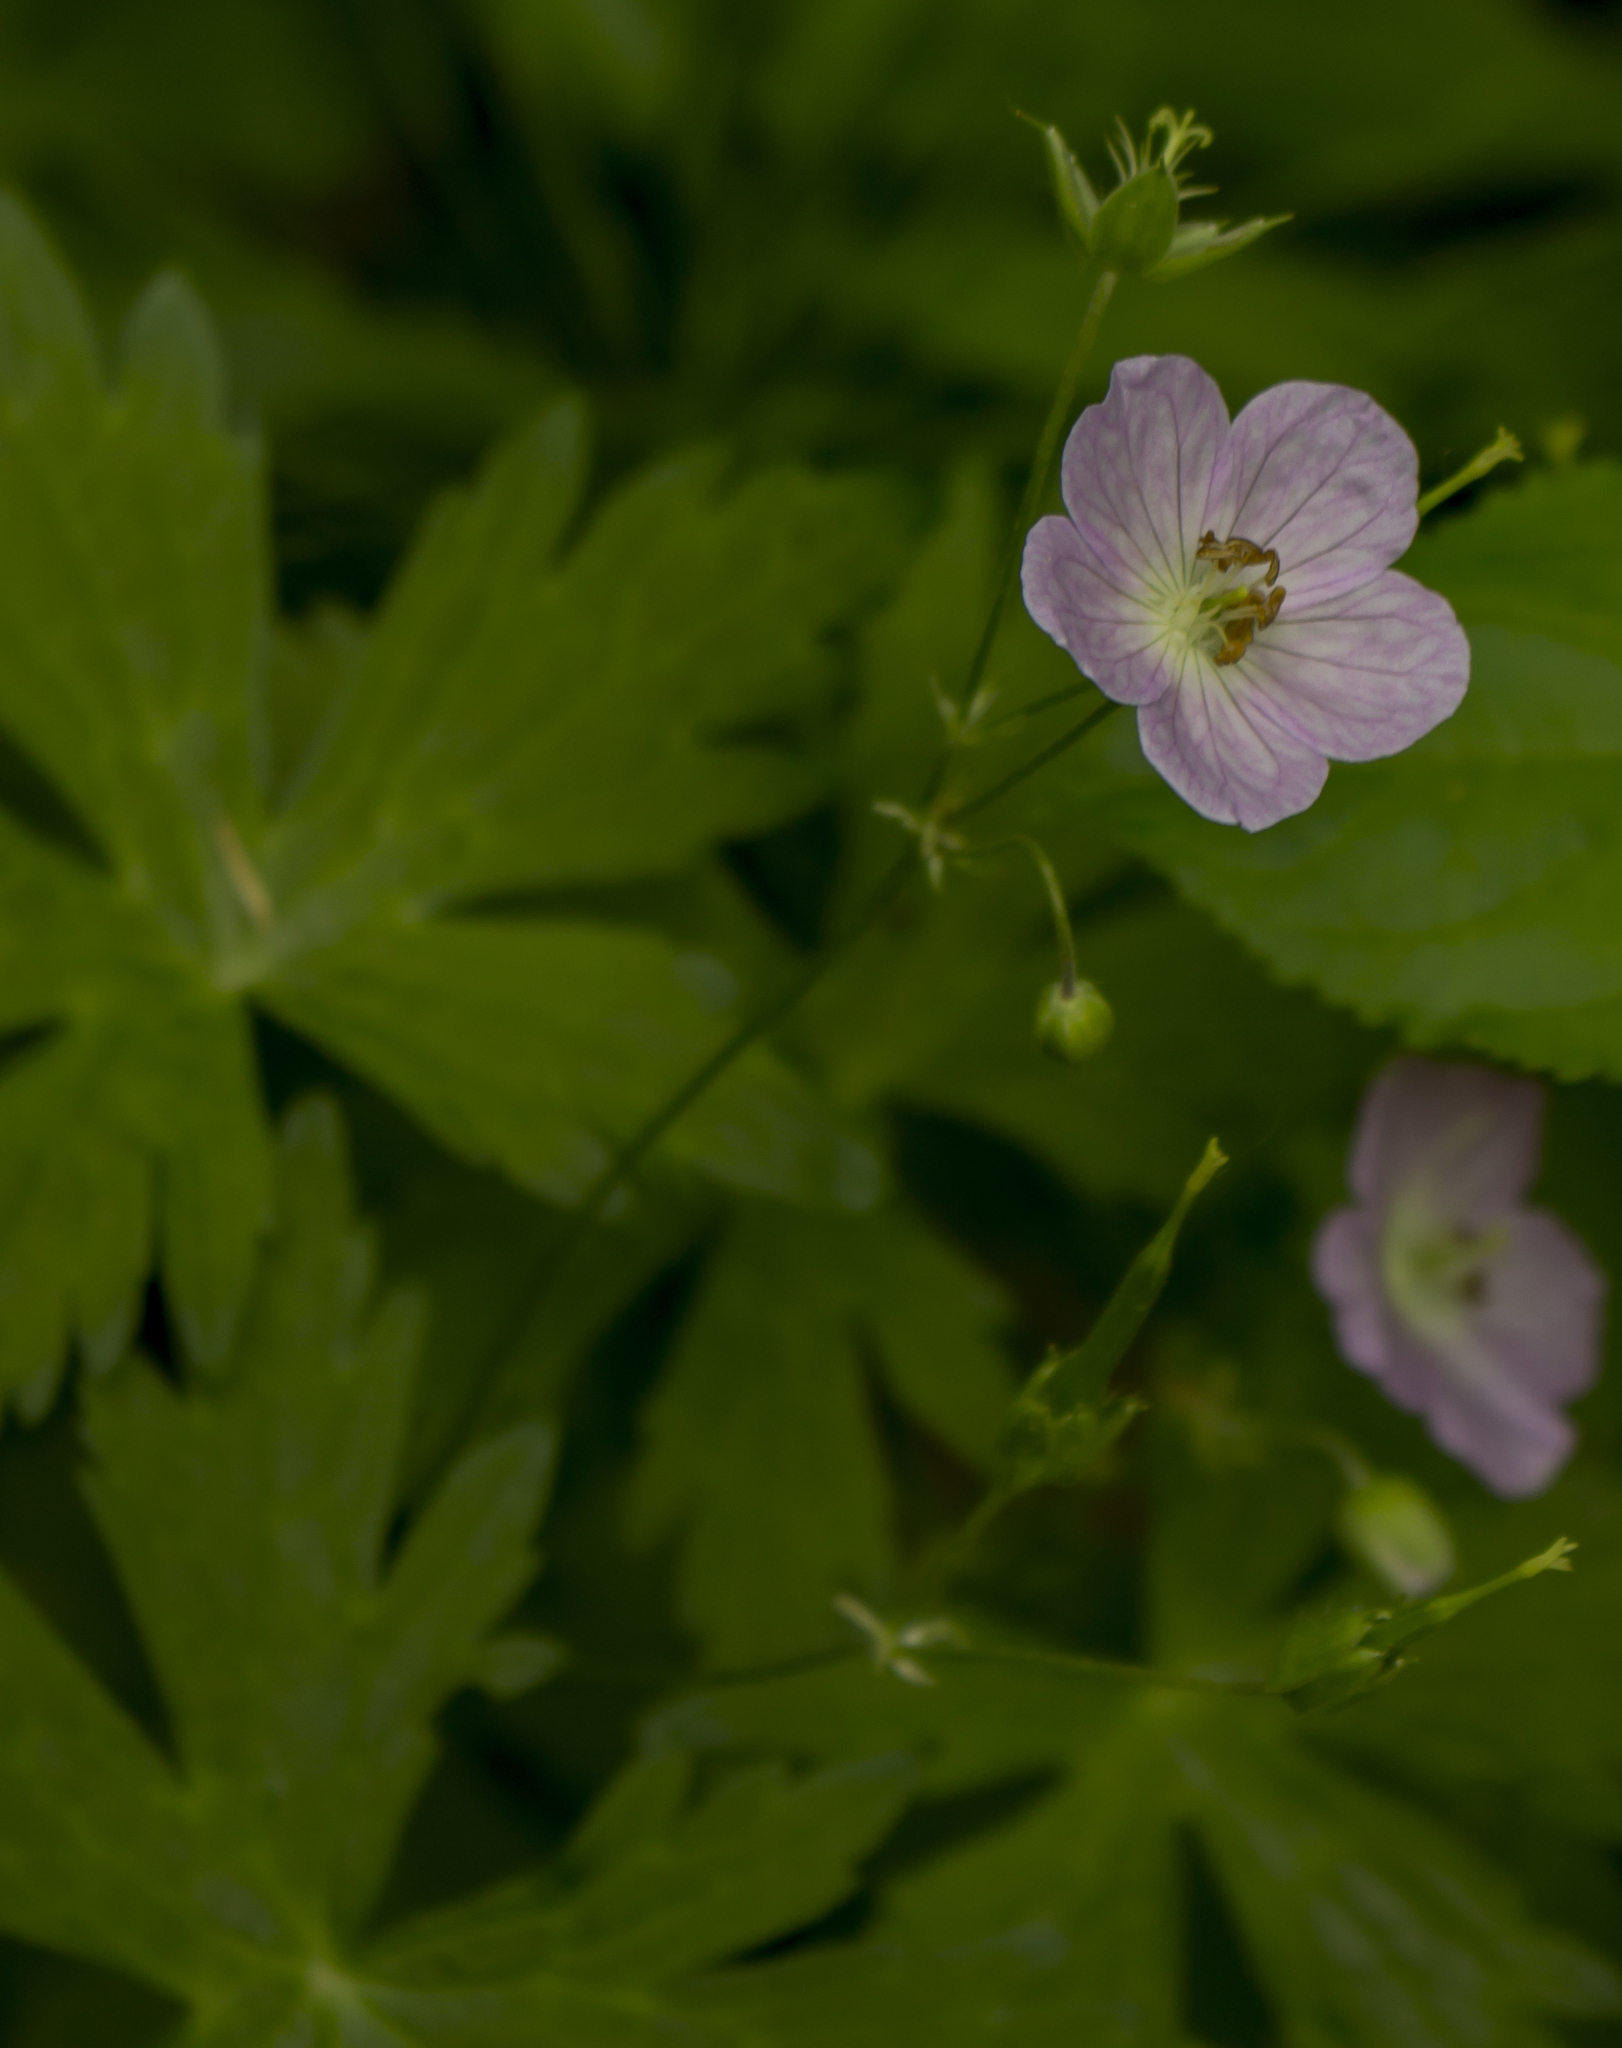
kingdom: Plantae
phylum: Tracheophyta
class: Magnoliopsida
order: Geraniales
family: Geraniaceae
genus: Geranium
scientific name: Geranium maculatum
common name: Spotted geranium
